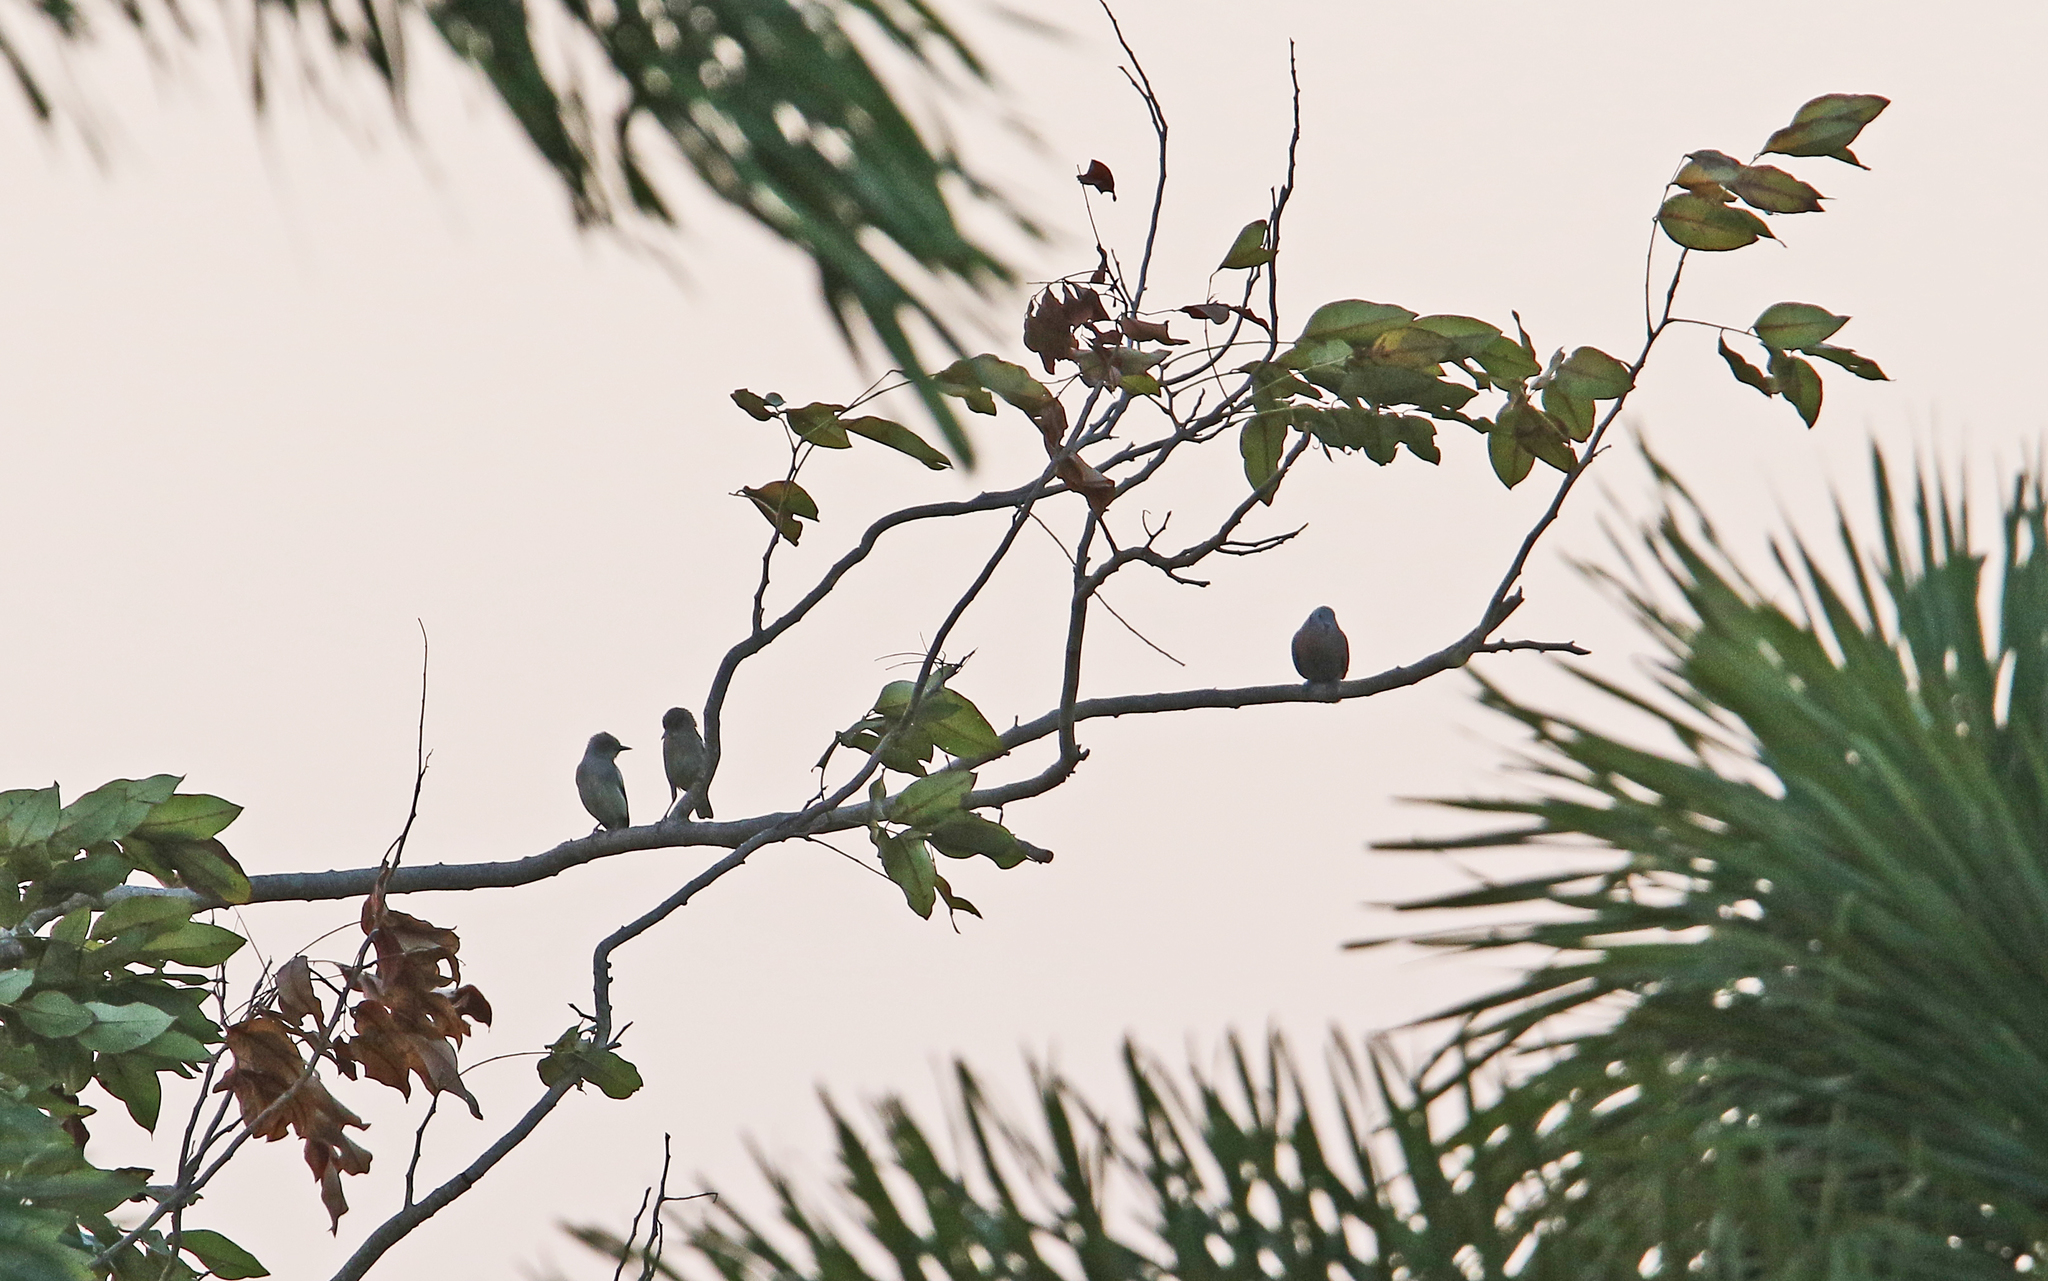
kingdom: Animalia
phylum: Chordata
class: Aves
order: Passeriformes
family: Sturnidae
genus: Sturnia
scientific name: Sturnia sinensis
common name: White-shouldered starling
